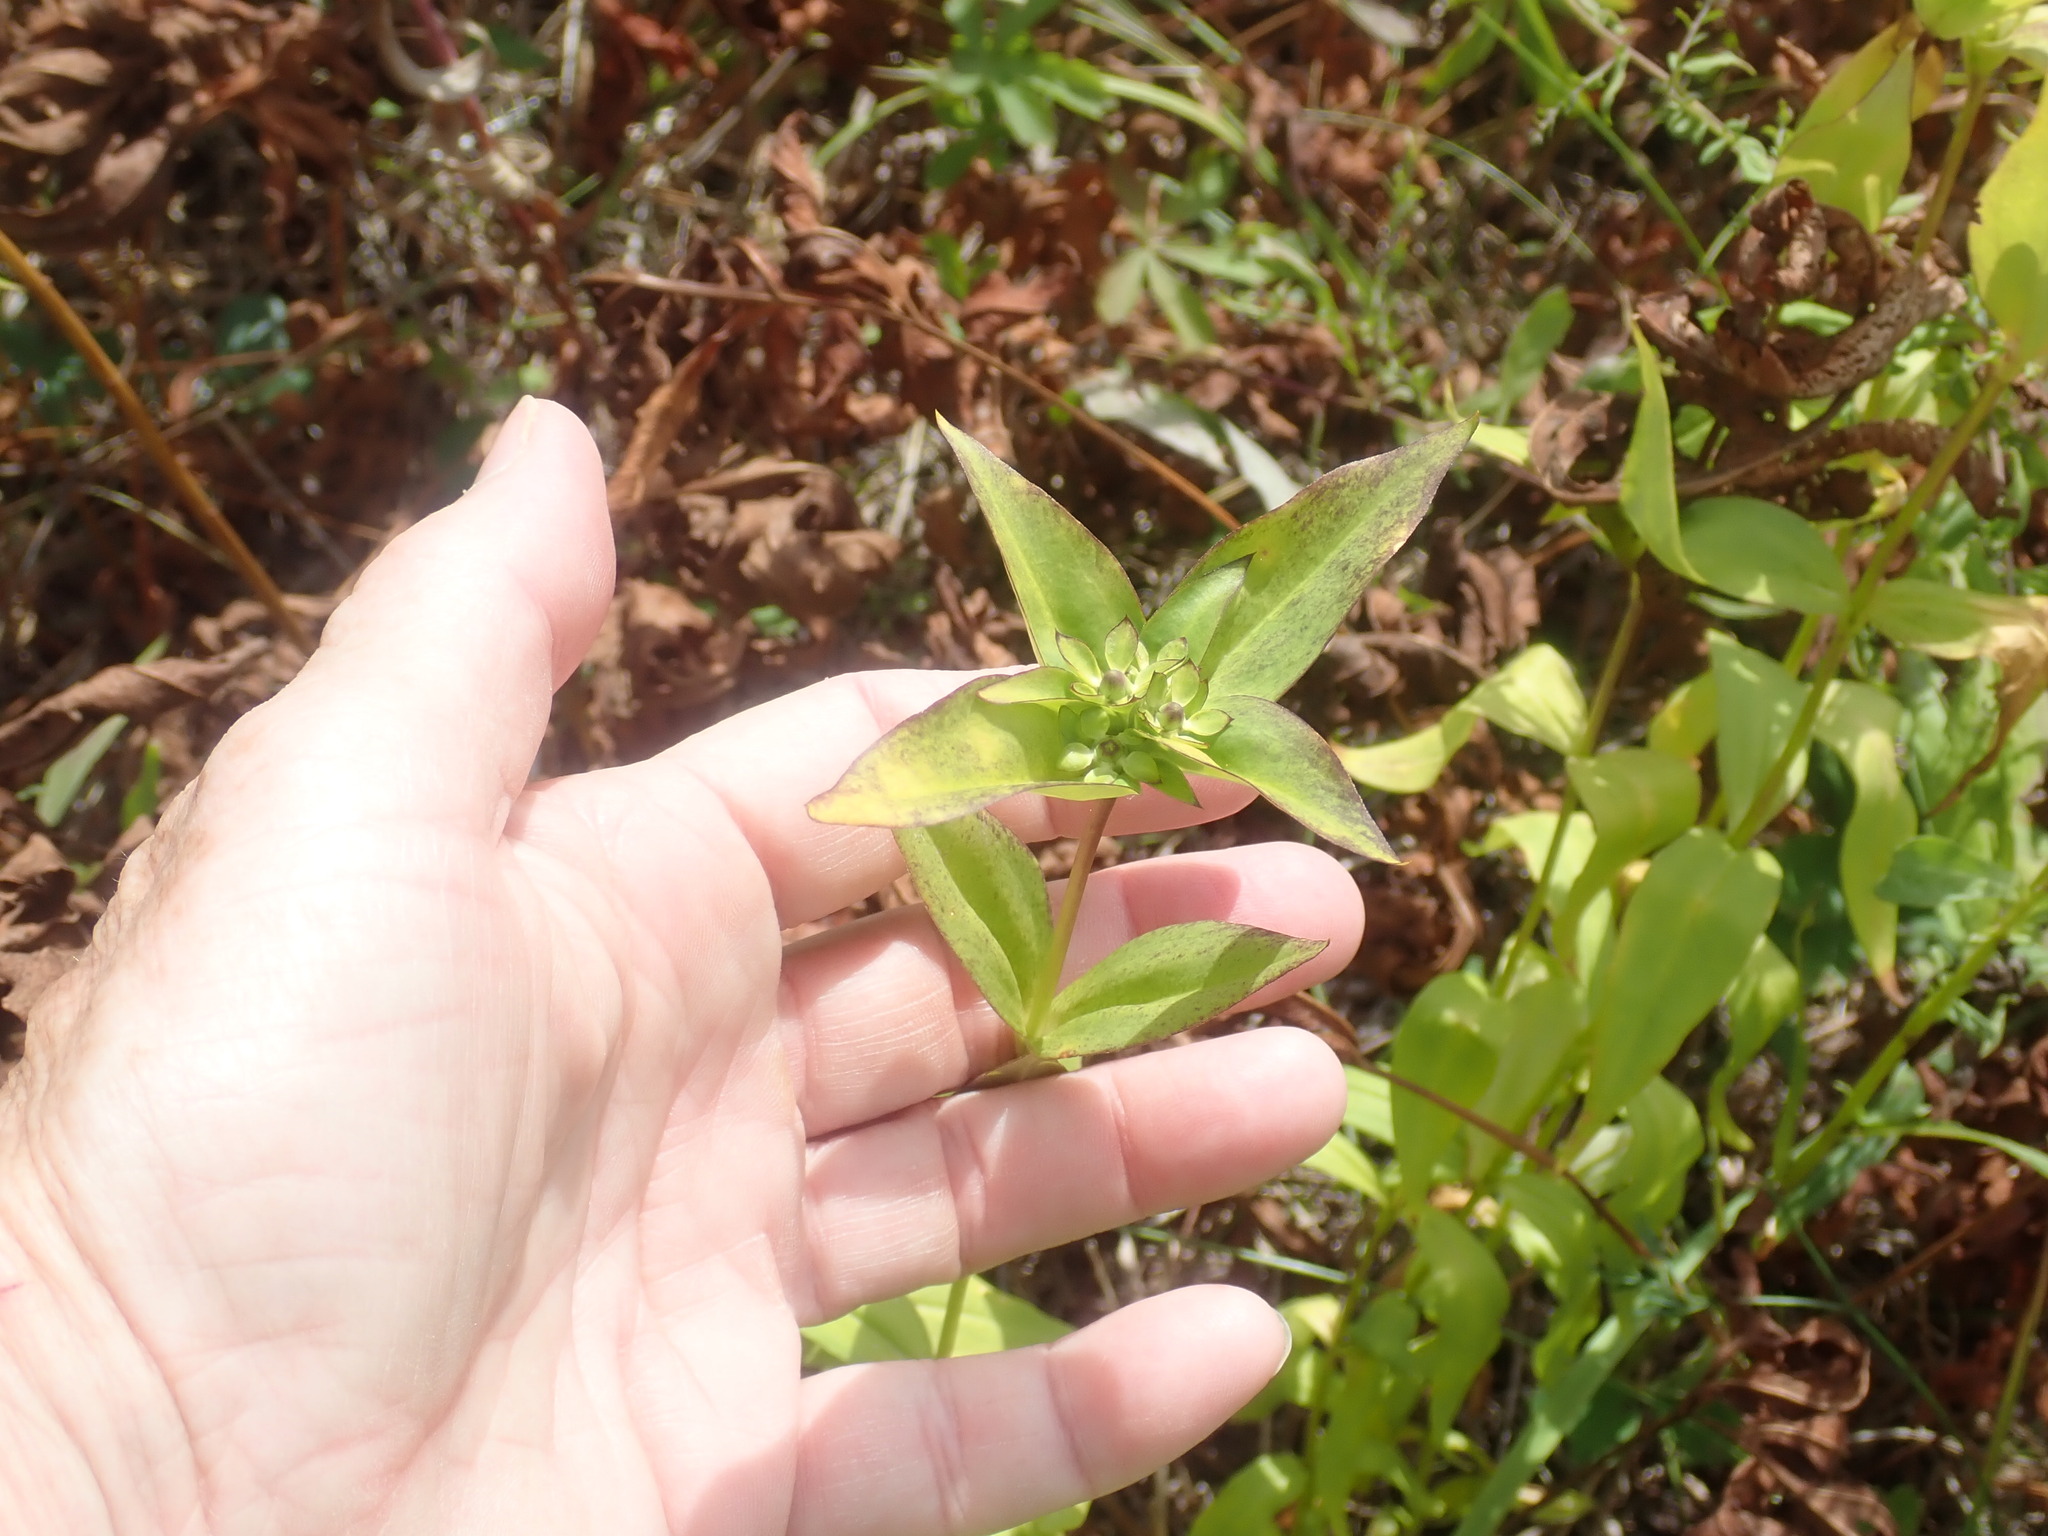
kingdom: Plantae
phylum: Tracheophyta
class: Magnoliopsida
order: Gentianales
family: Gentianaceae
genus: Gentiana
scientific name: Gentiana clausa
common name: Blind gentian
